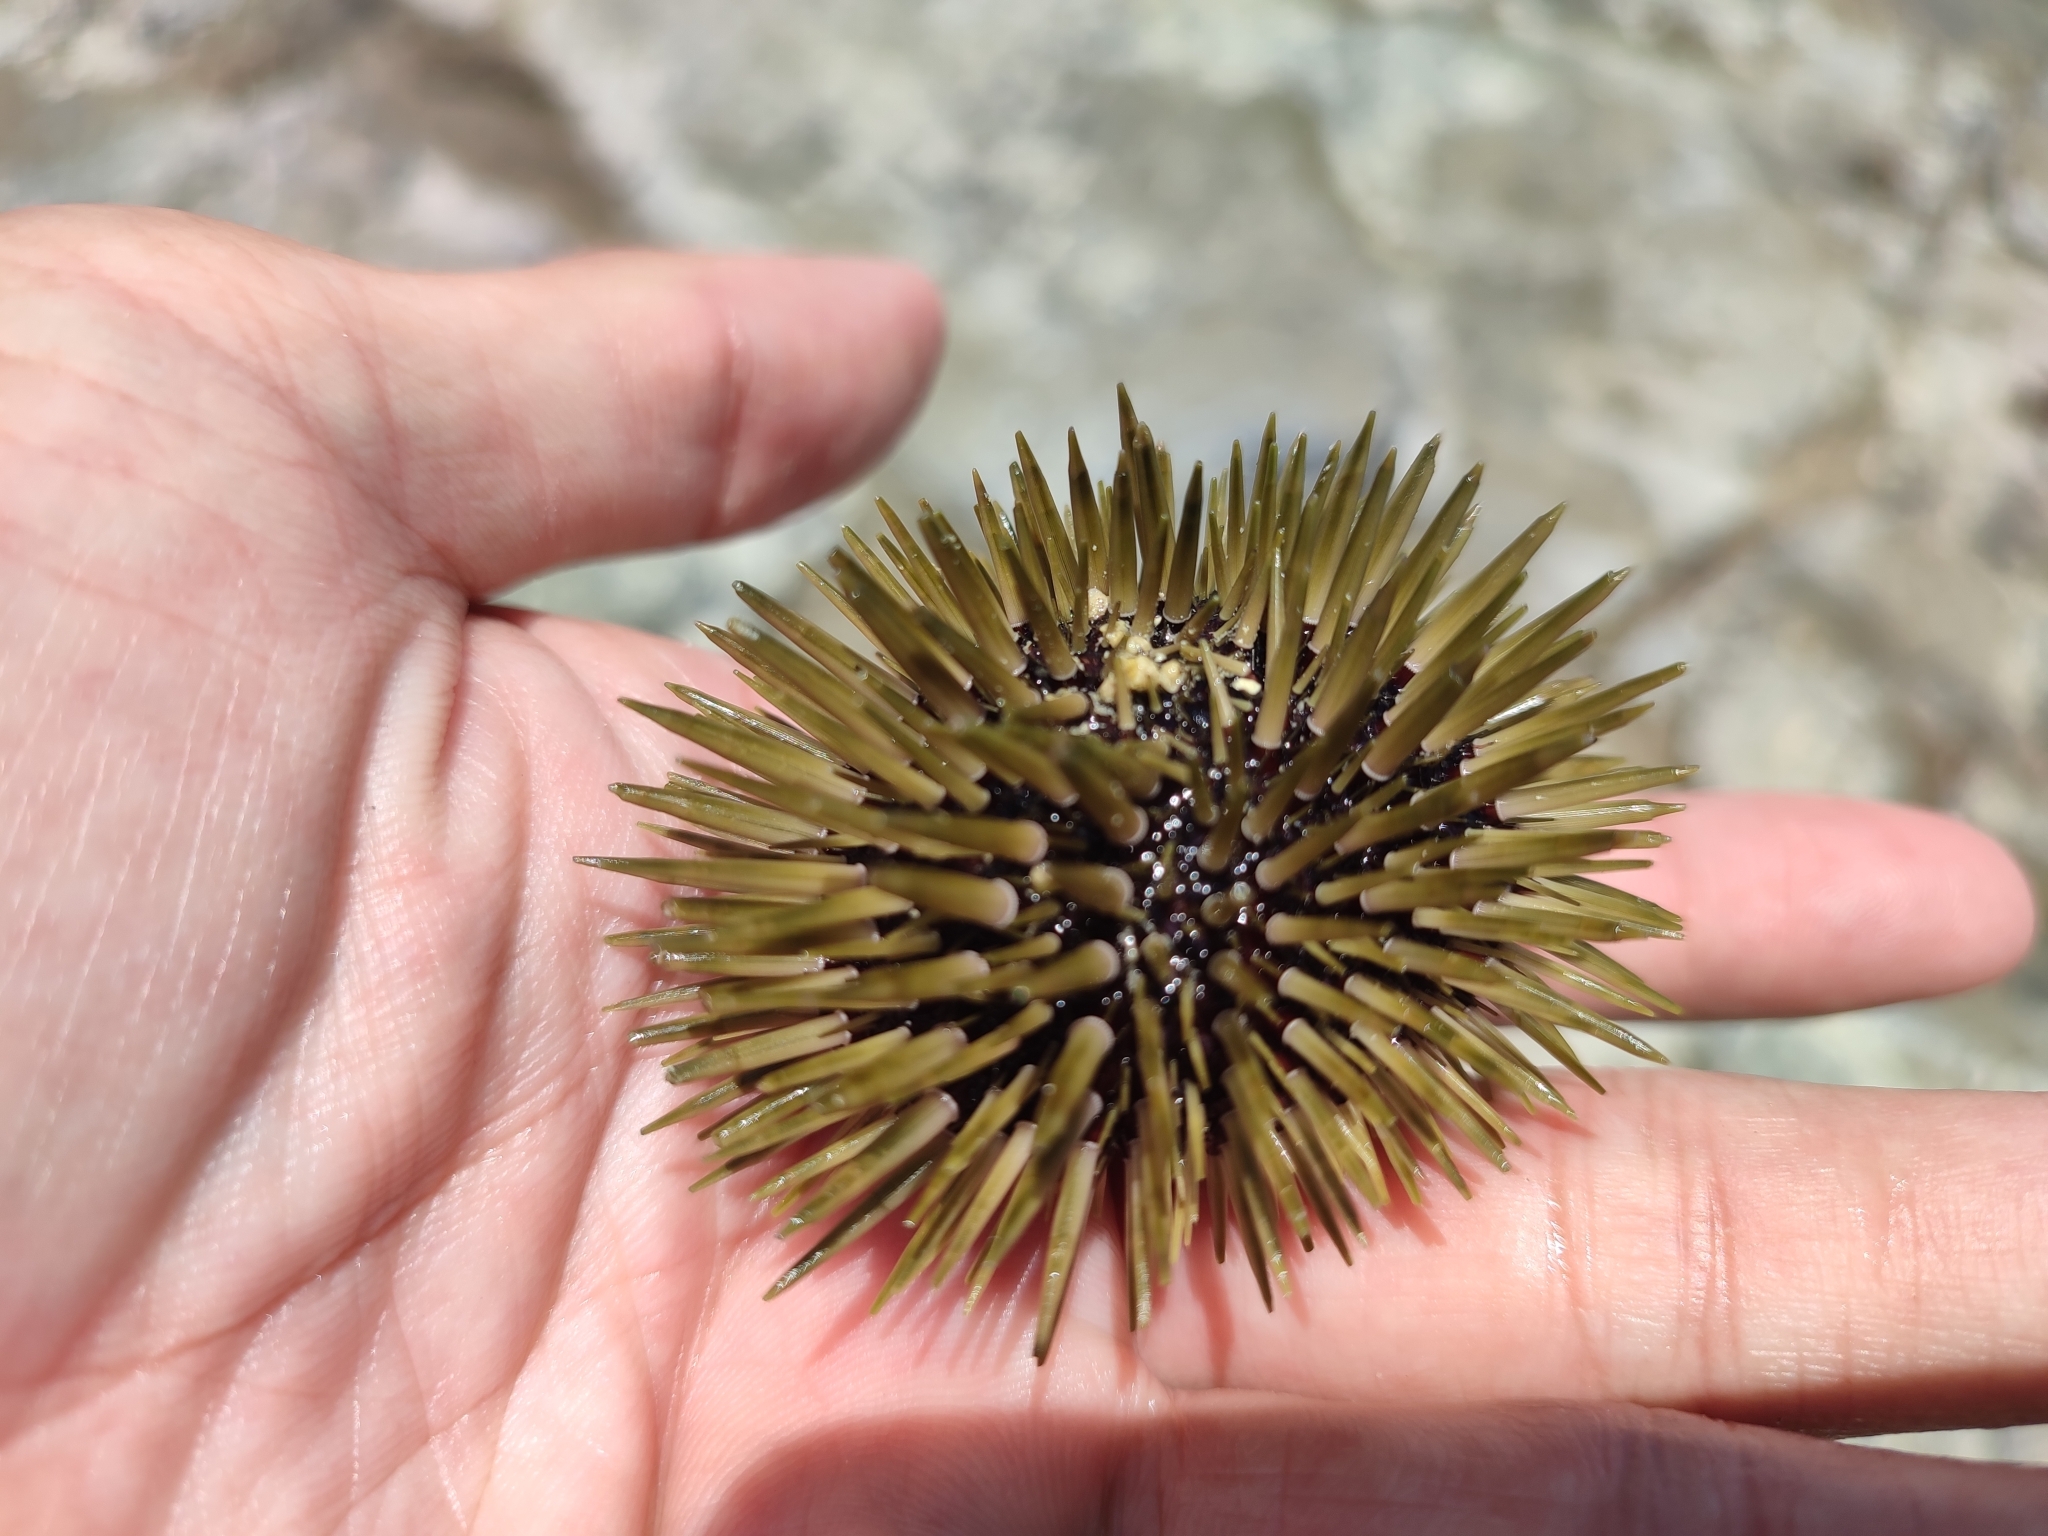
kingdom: Animalia
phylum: Echinodermata
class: Echinoidea
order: Camarodonta
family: Echinometridae
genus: Echinometra
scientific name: Echinometra mathaei
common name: Rock-boring urchin
